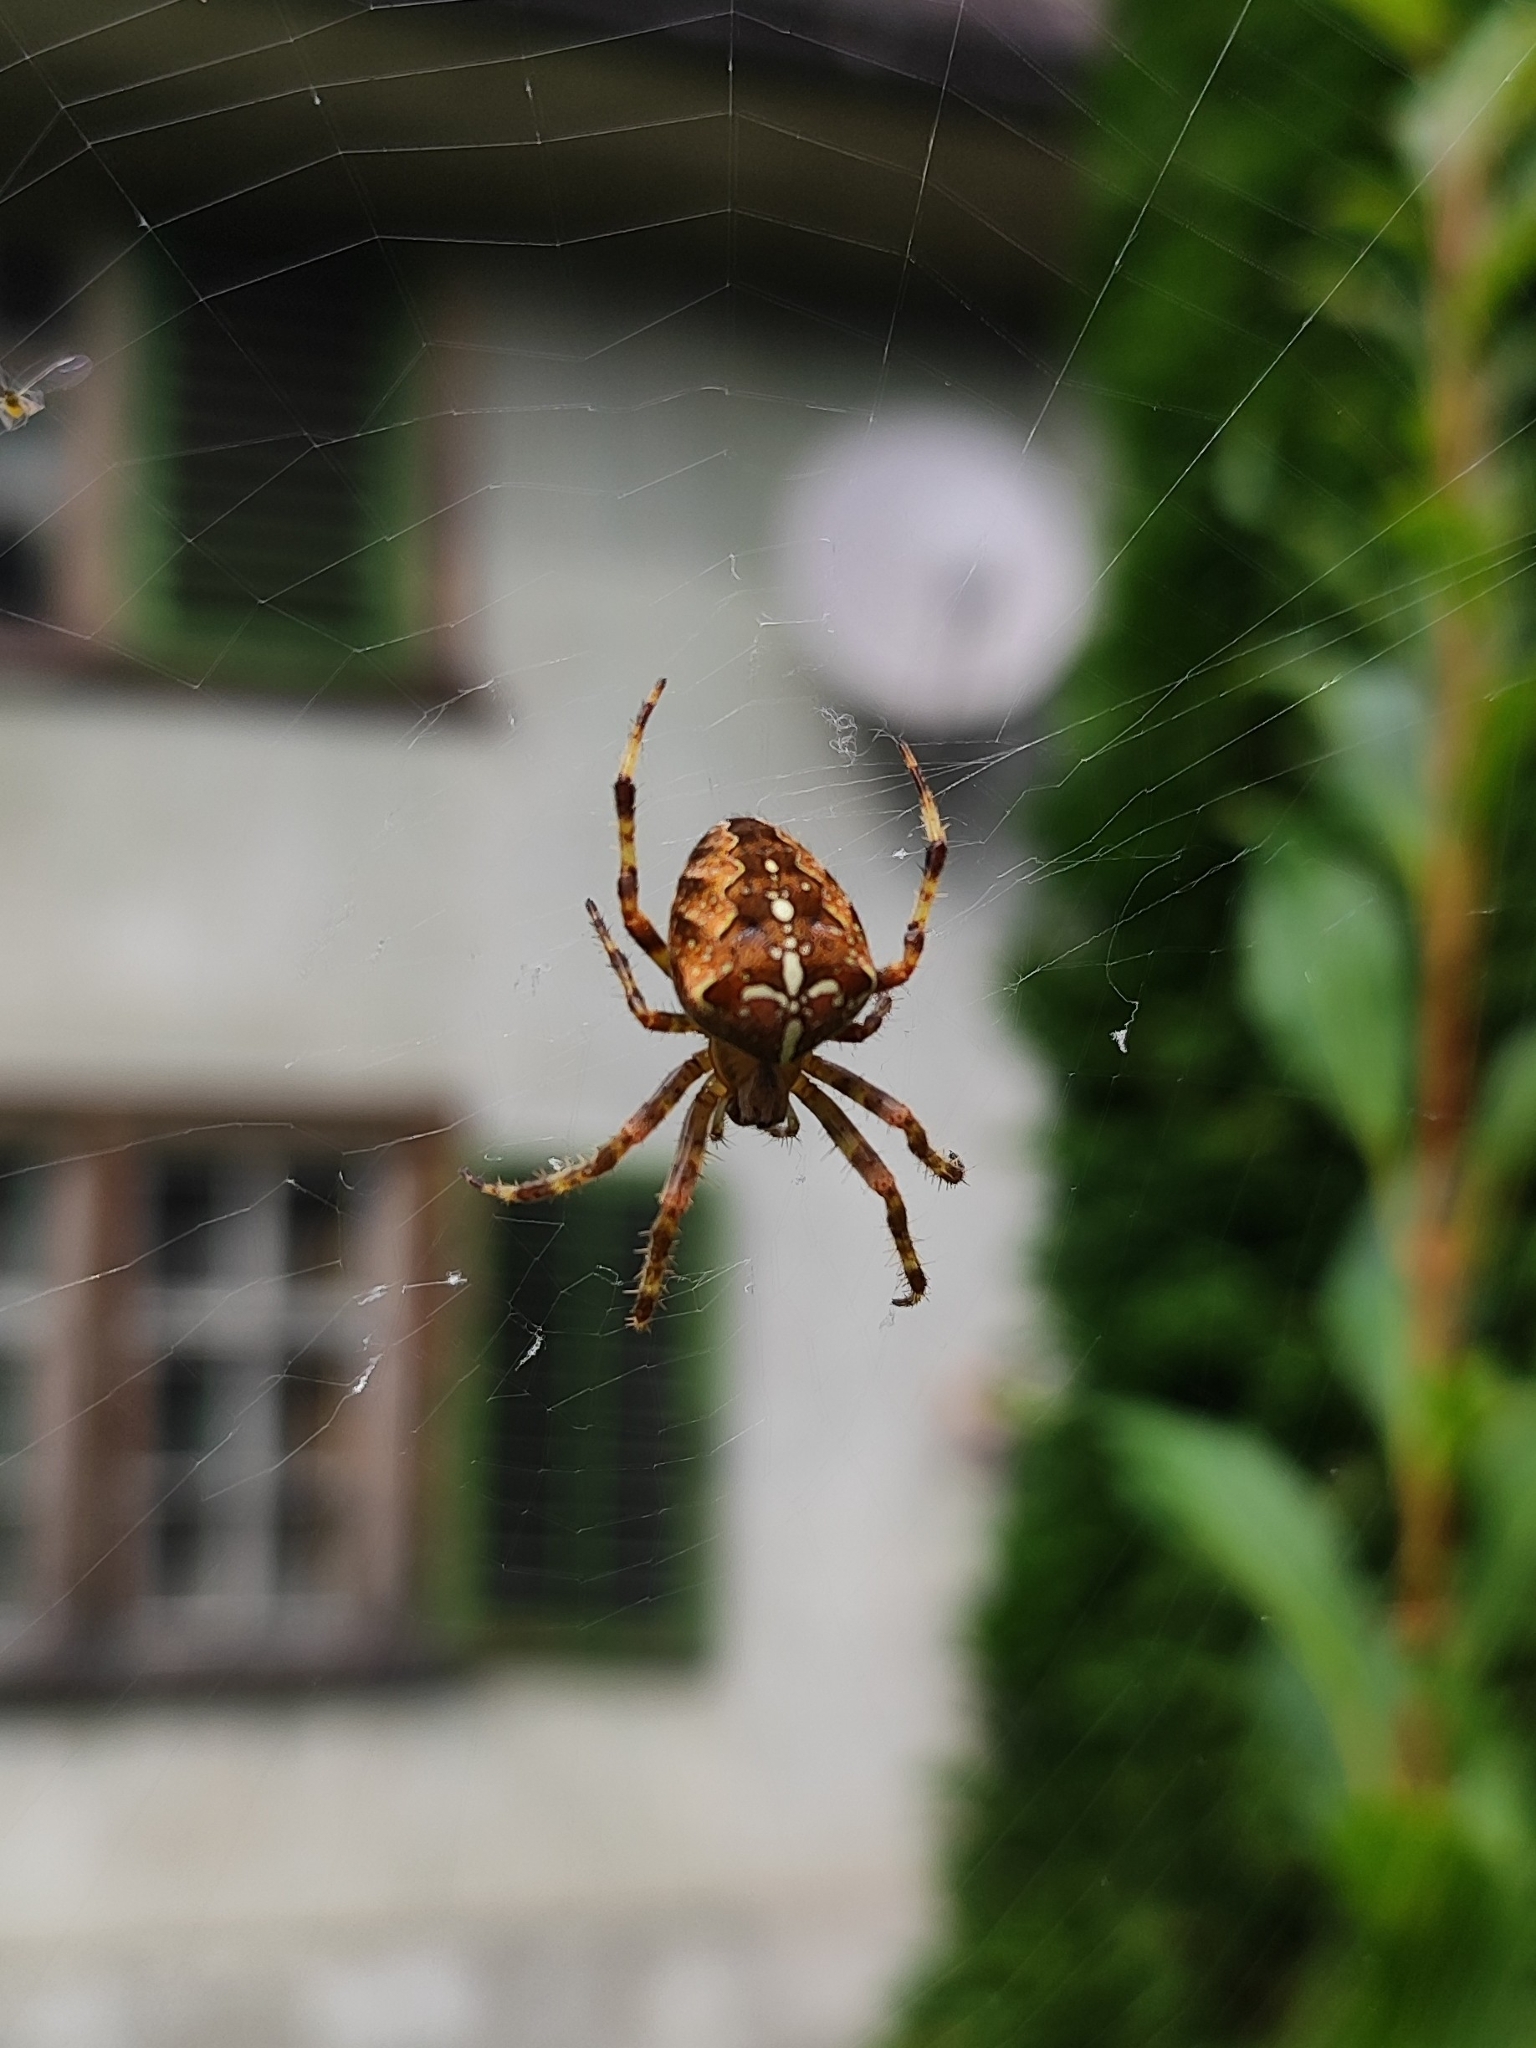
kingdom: Animalia
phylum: Arthropoda
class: Arachnida
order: Araneae
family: Araneidae
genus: Araneus
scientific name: Araneus diadematus
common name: Cross orbweaver
